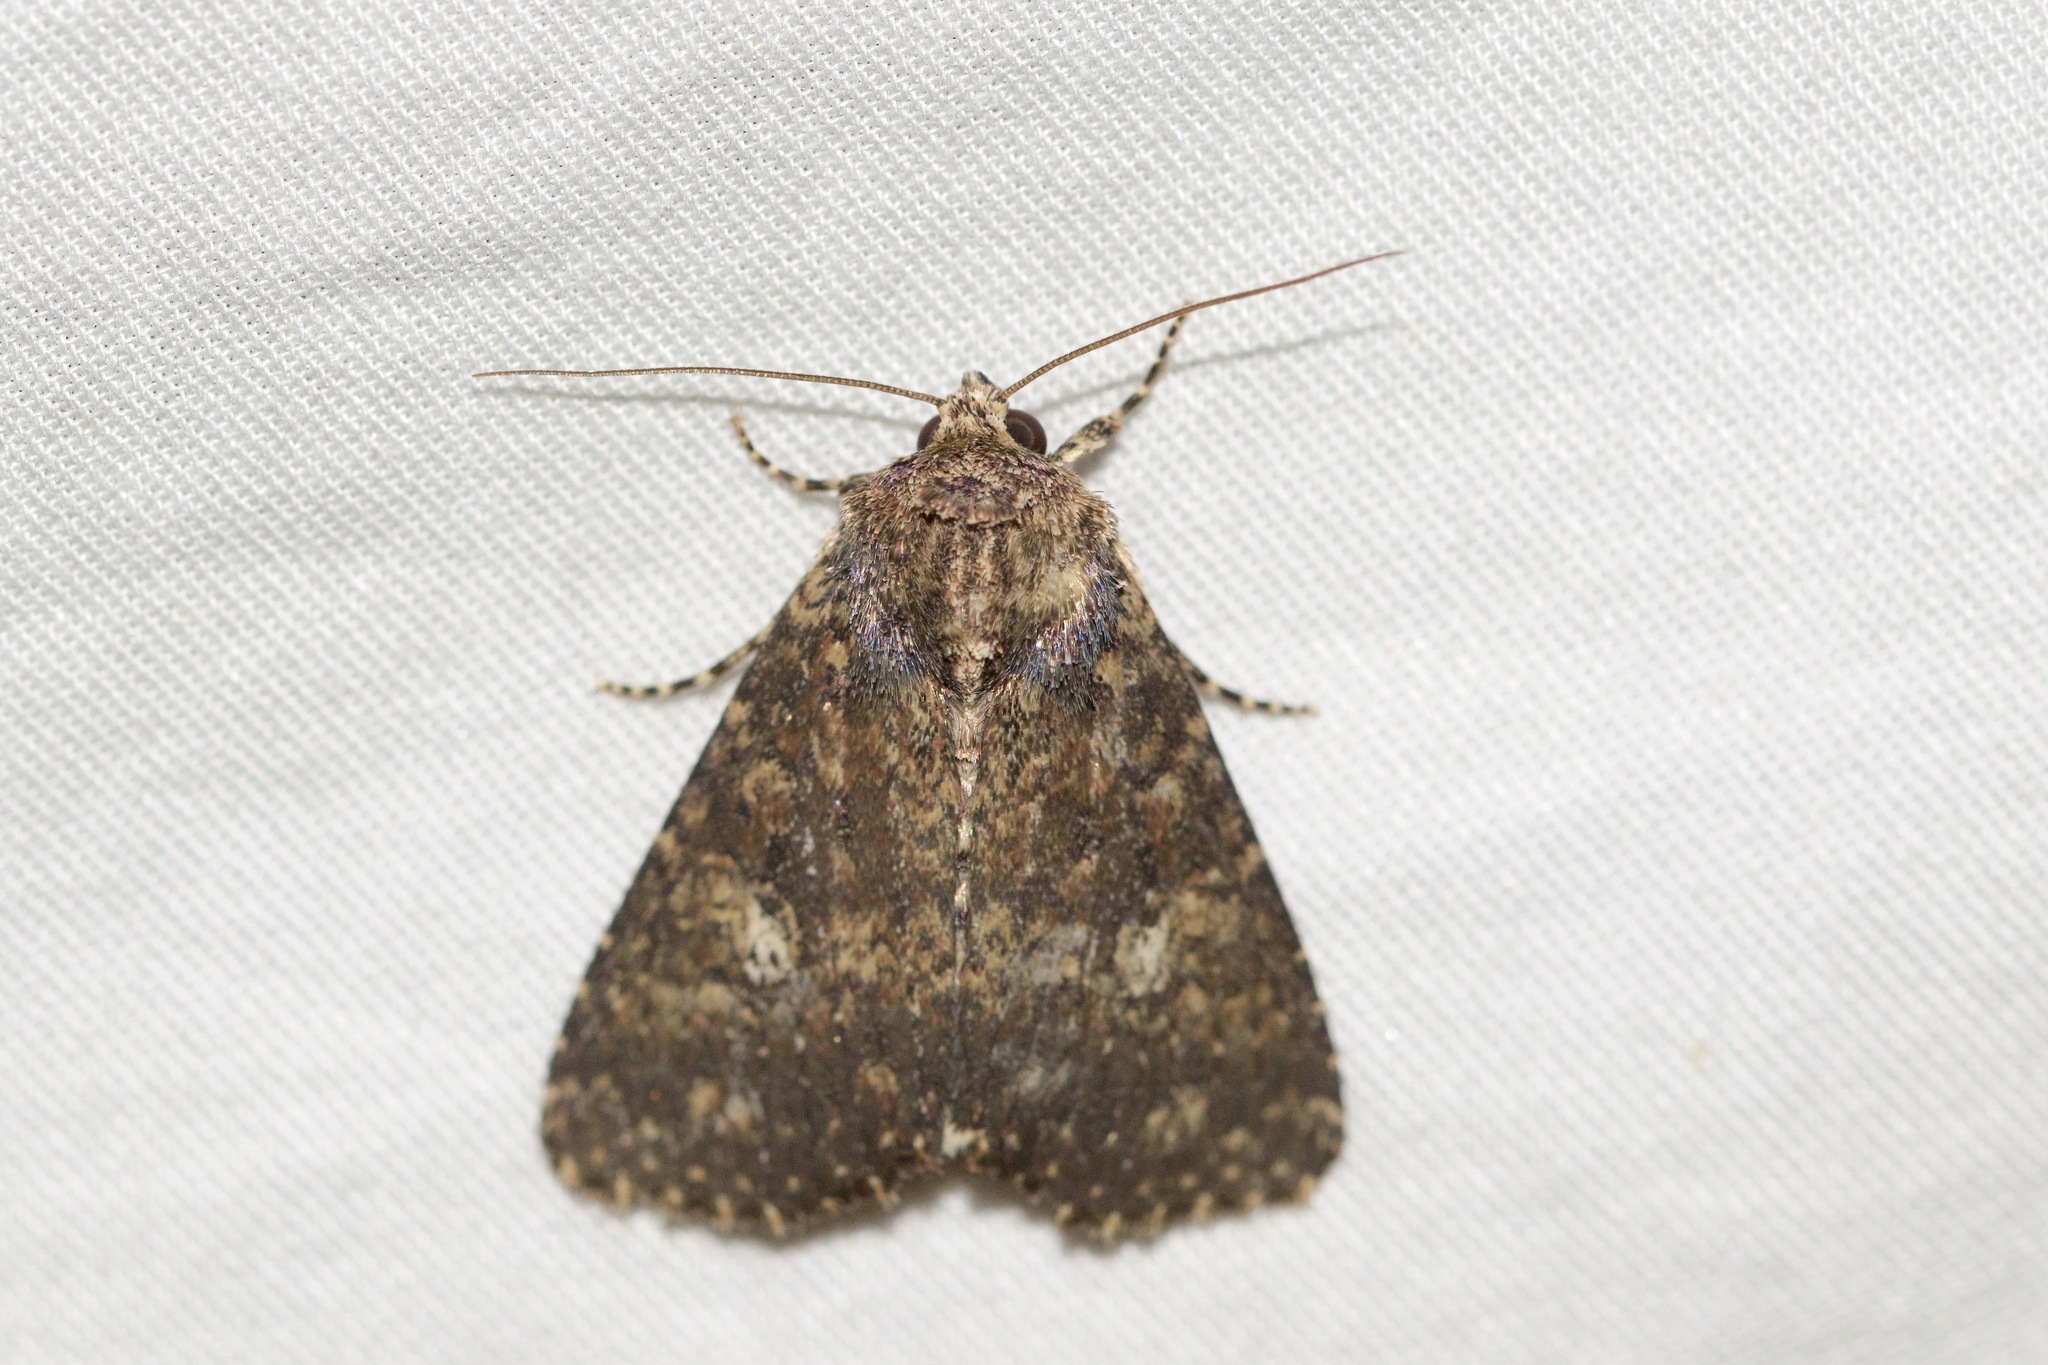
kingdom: Animalia
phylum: Arthropoda
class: Insecta
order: Lepidoptera
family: Noctuidae
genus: Condica
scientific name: Condica vecors
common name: Dusky groundling
